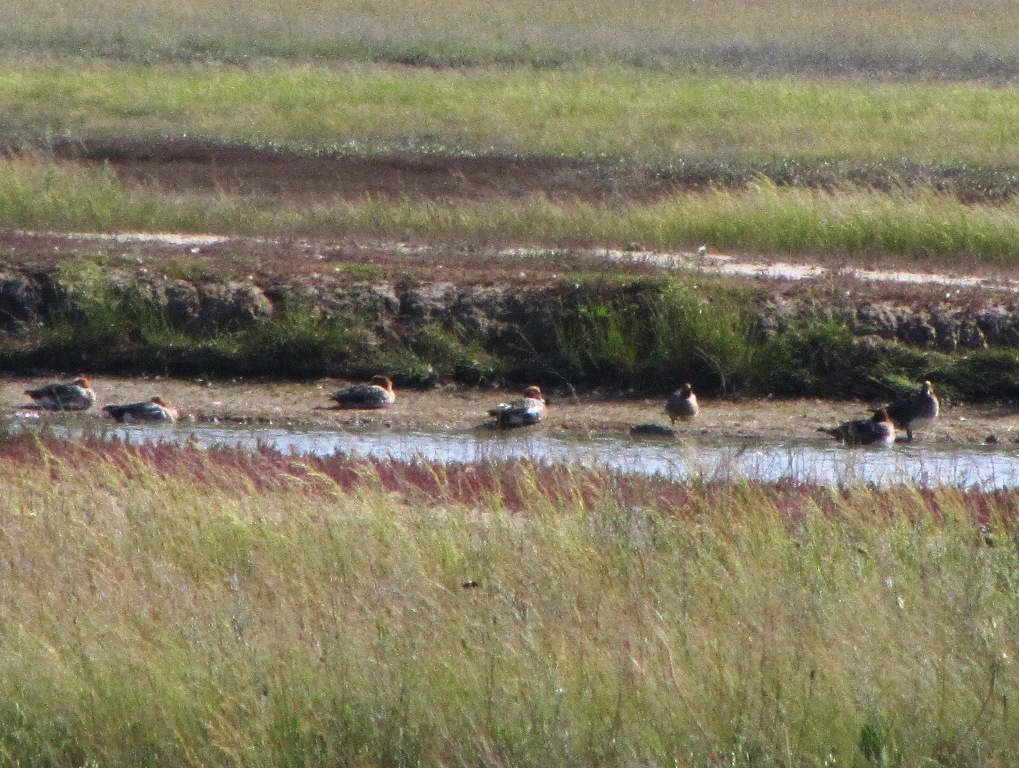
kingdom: Animalia
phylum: Chordata
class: Aves
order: Anseriformes
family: Anatidae
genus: Mareca
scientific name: Mareca penelope
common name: Eurasian wigeon
